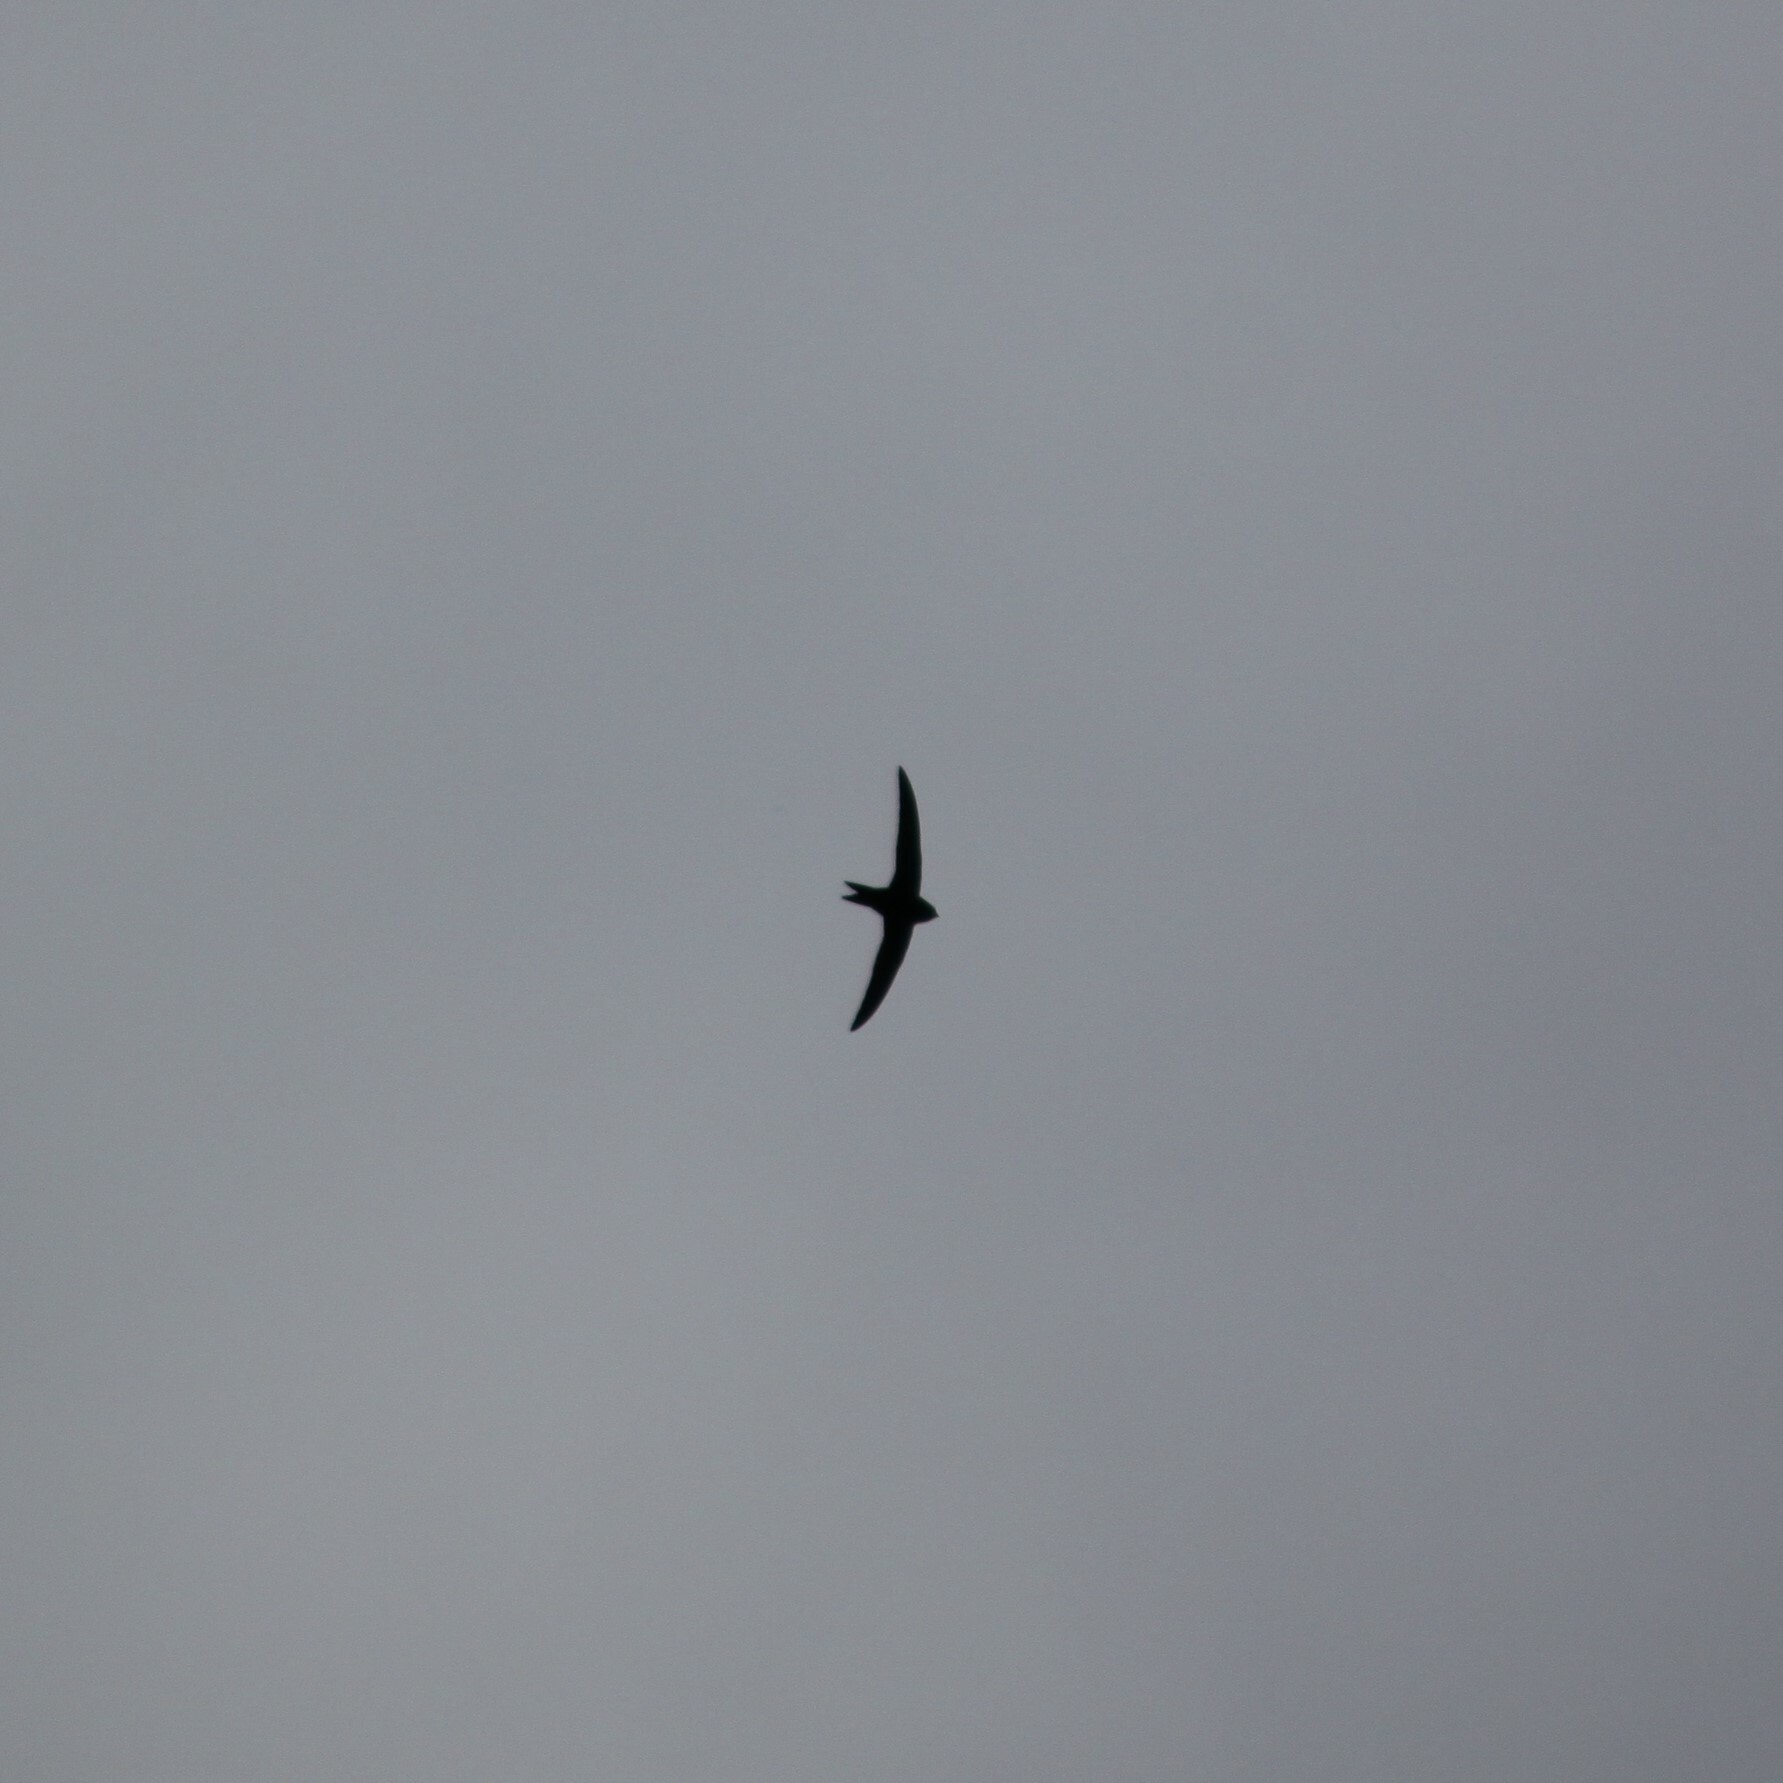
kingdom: Animalia
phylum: Chordata
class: Aves
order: Apodiformes
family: Apodidae
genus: Apus
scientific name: Apus apus
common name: Common swift
